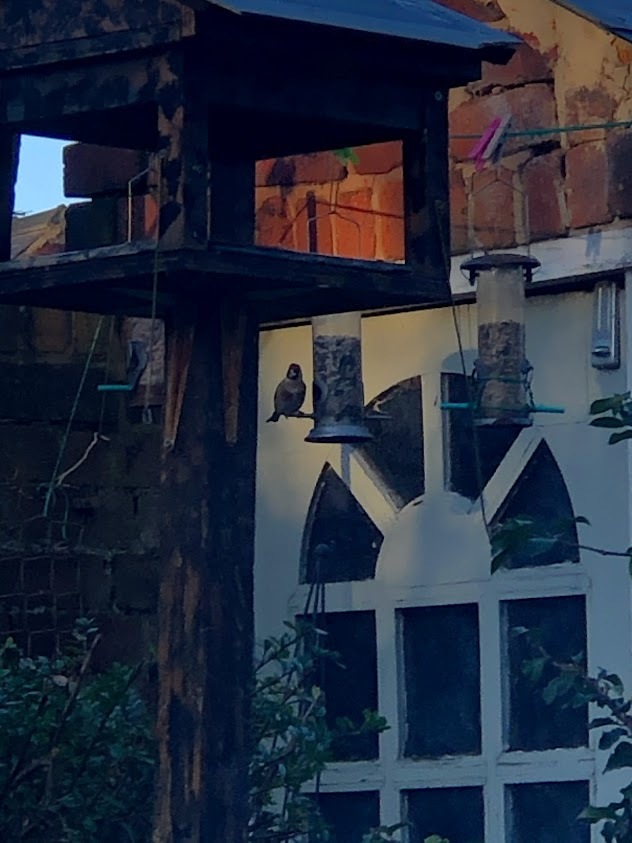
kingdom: Animalia
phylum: Chordata
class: Aves
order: Passeriformes
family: Fringillidae
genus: Carduelis
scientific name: Carduelis carduelis
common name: European goldfinch
